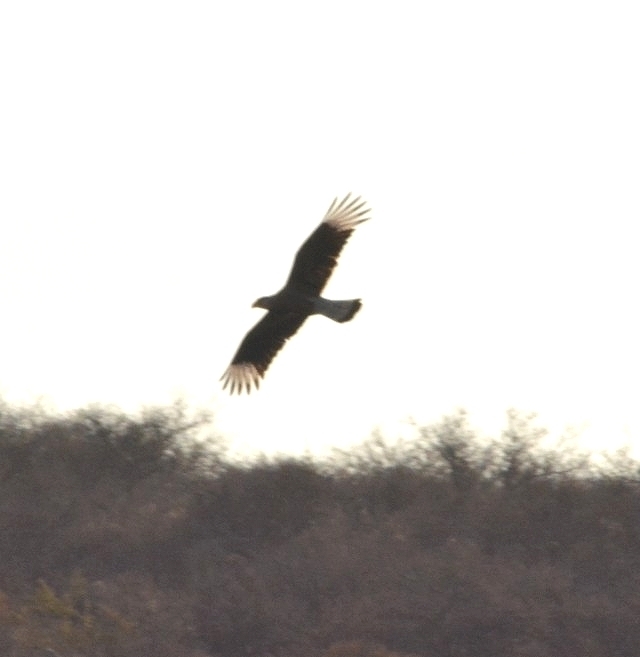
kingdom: Animalia
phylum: Chordata
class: Aves
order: Falconiformes
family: Falconidae
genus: Caracara
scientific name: Caracara plancus
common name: Southern caracara
